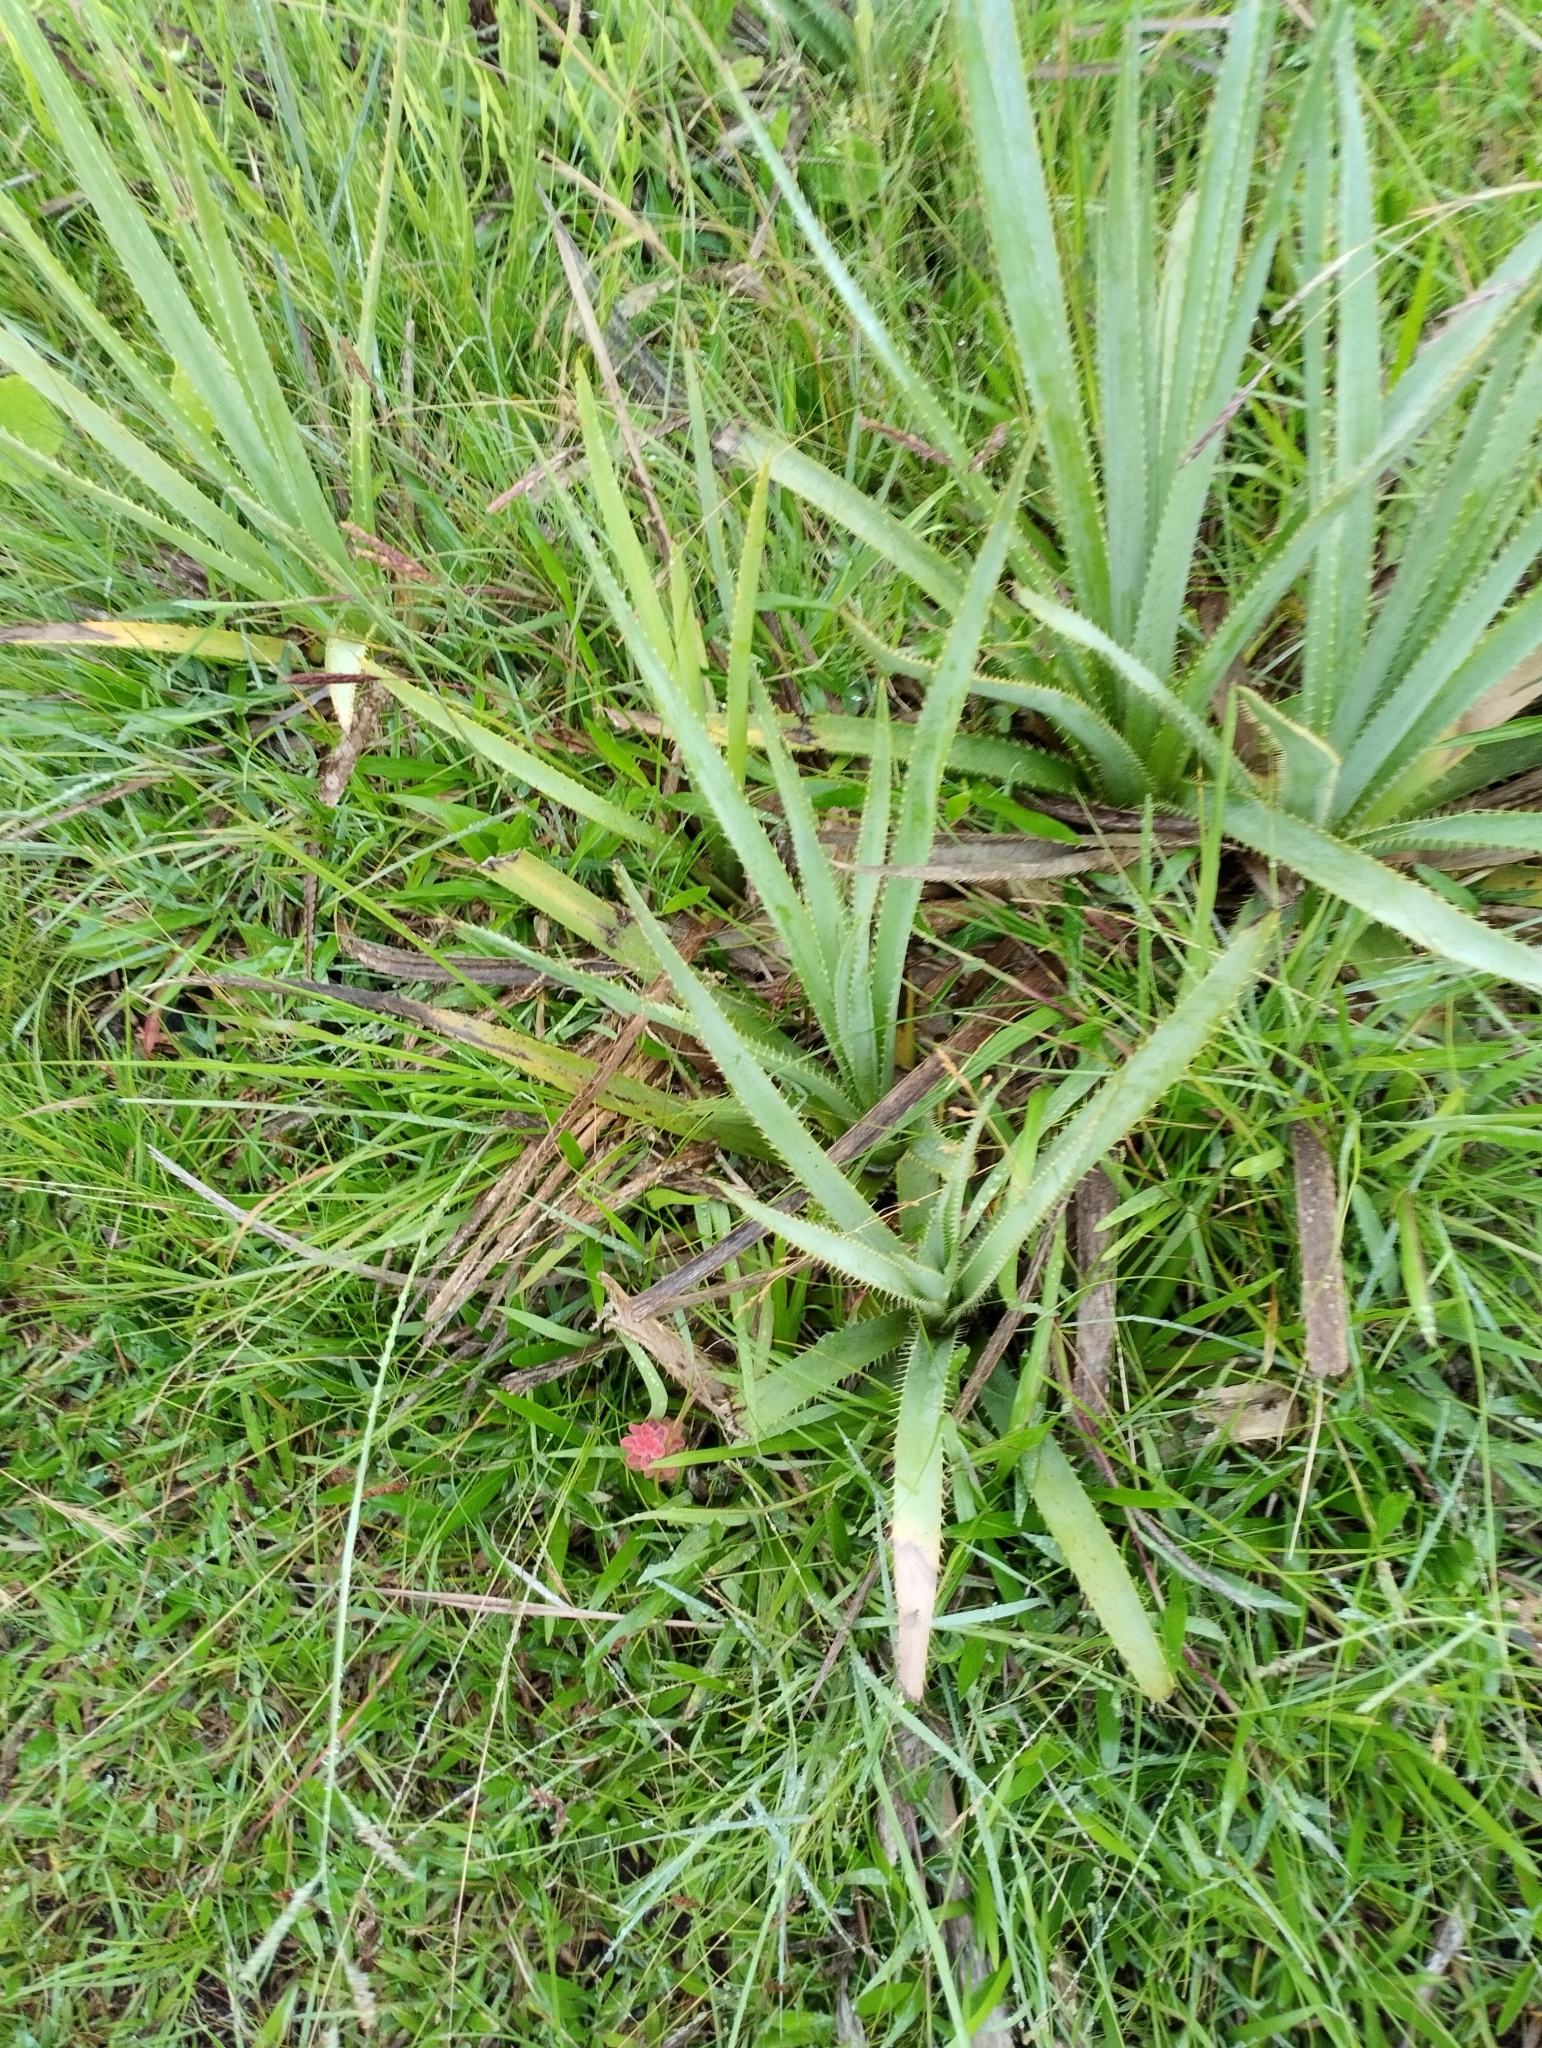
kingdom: Plantae
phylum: Tracheophyta
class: Magnoliopsida
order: Lamiales
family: Orobanchaceae
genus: Castilleja
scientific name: Castilleja arvensis
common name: Indian paintbrush
